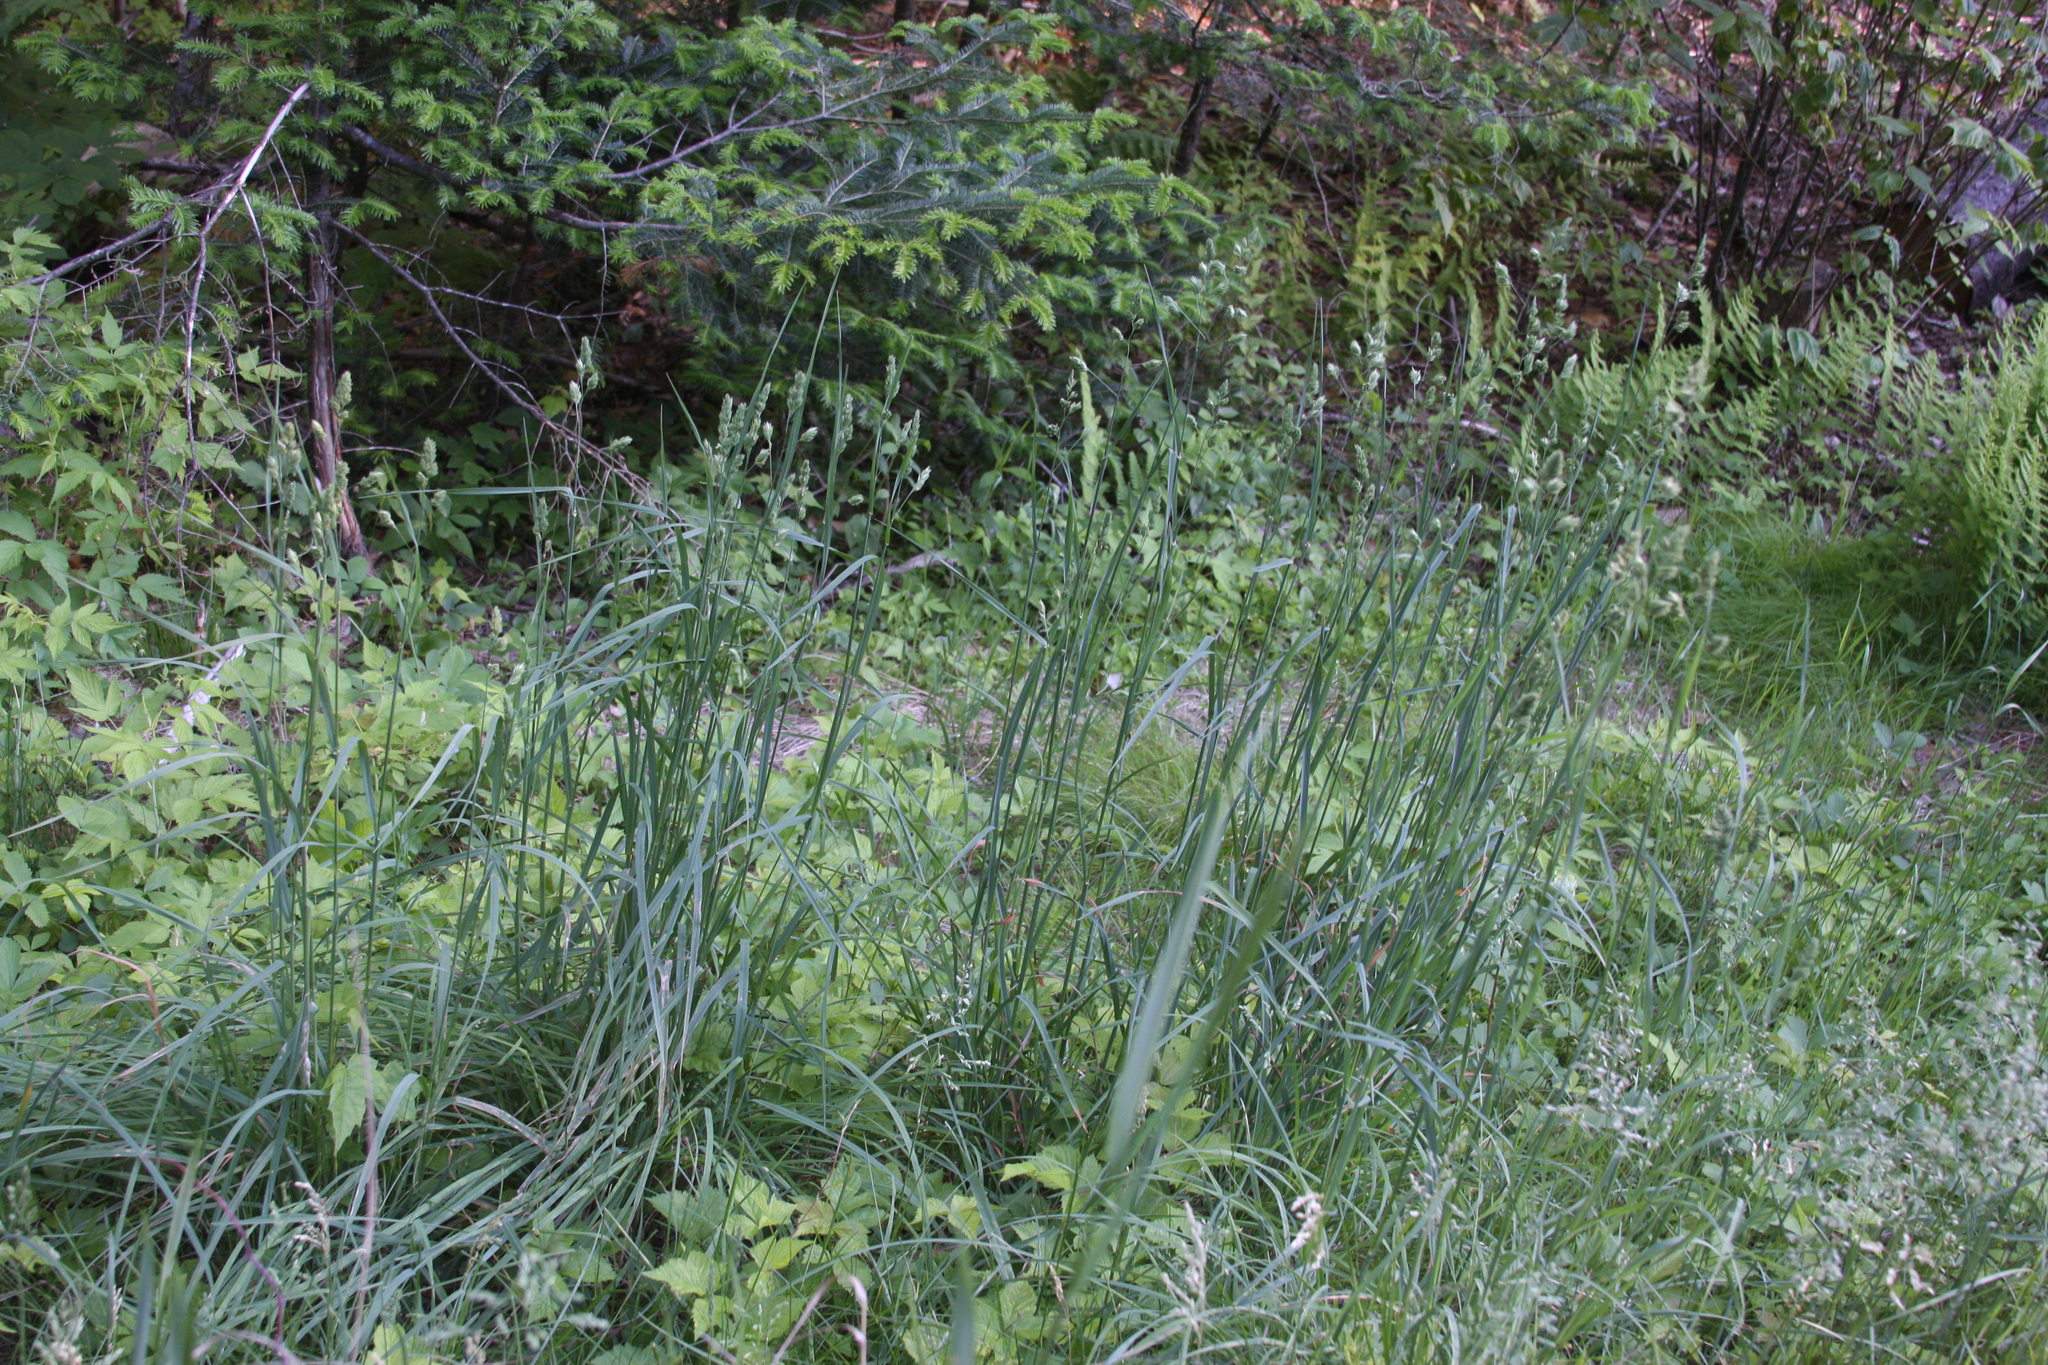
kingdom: Plantae
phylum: Tracheophyta
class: Liliopsida
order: Poales
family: Poaceae
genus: Dactylis
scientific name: Dactylis glomerata
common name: Orchardgrass
